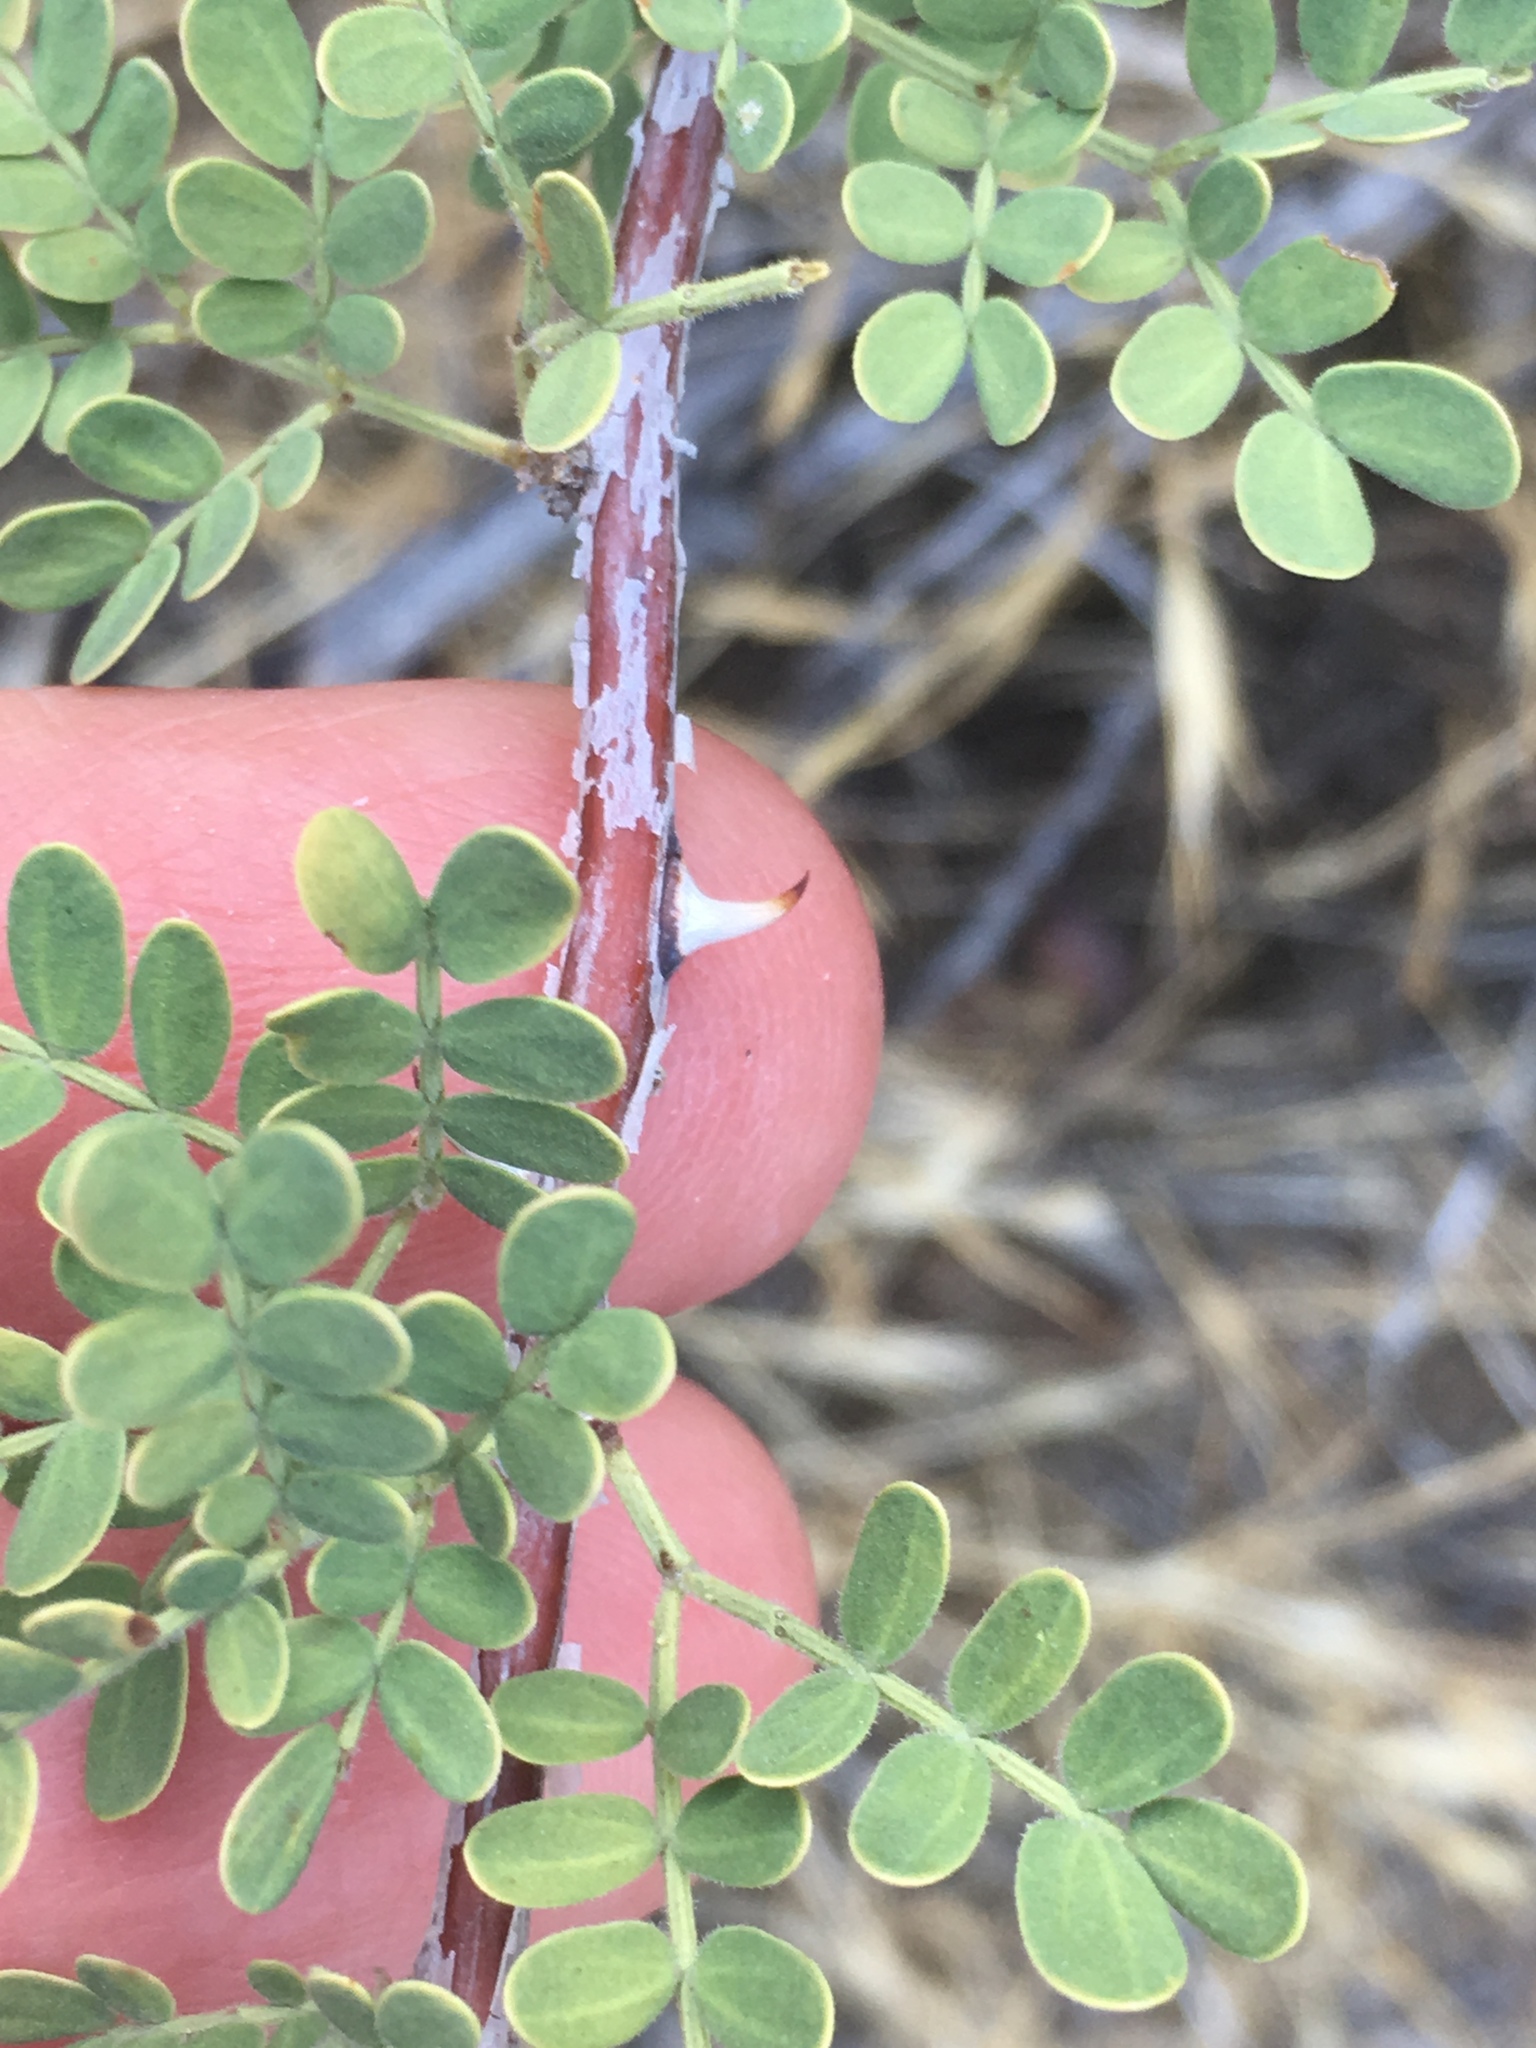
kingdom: Plantae
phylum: Tracheophyta
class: Magnoliopsida
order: Fabales
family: Fabaceae
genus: Senegalia
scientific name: Senegalia greggii
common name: Texas-mimosa
